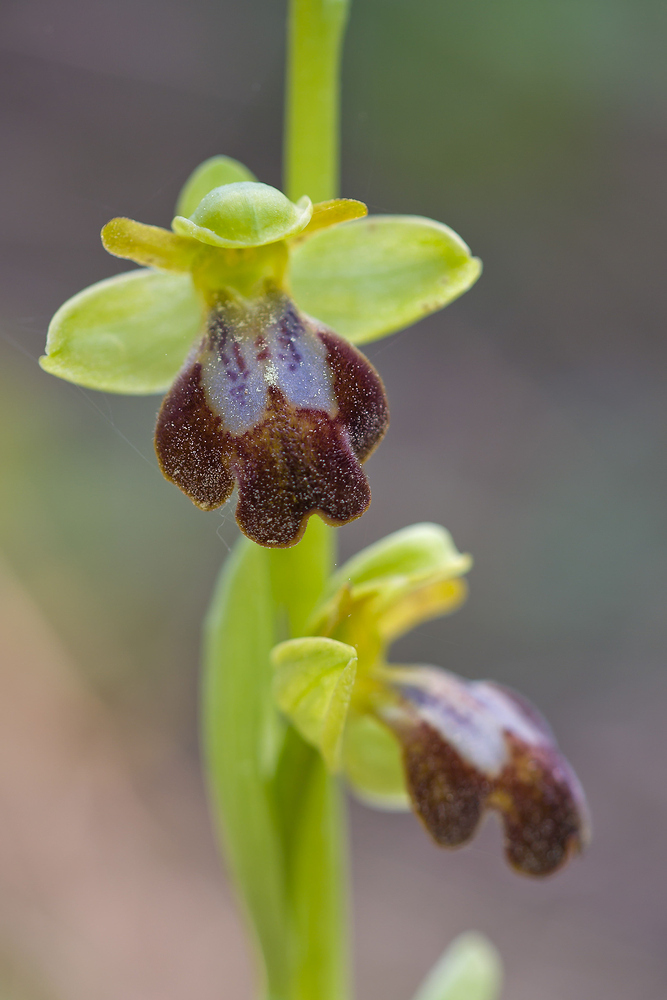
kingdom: Plantae
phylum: Tracheophyta
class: Liliopsida
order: Asparagales
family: Orchidaceae
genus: Ophrys
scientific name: Ophrys fusca
